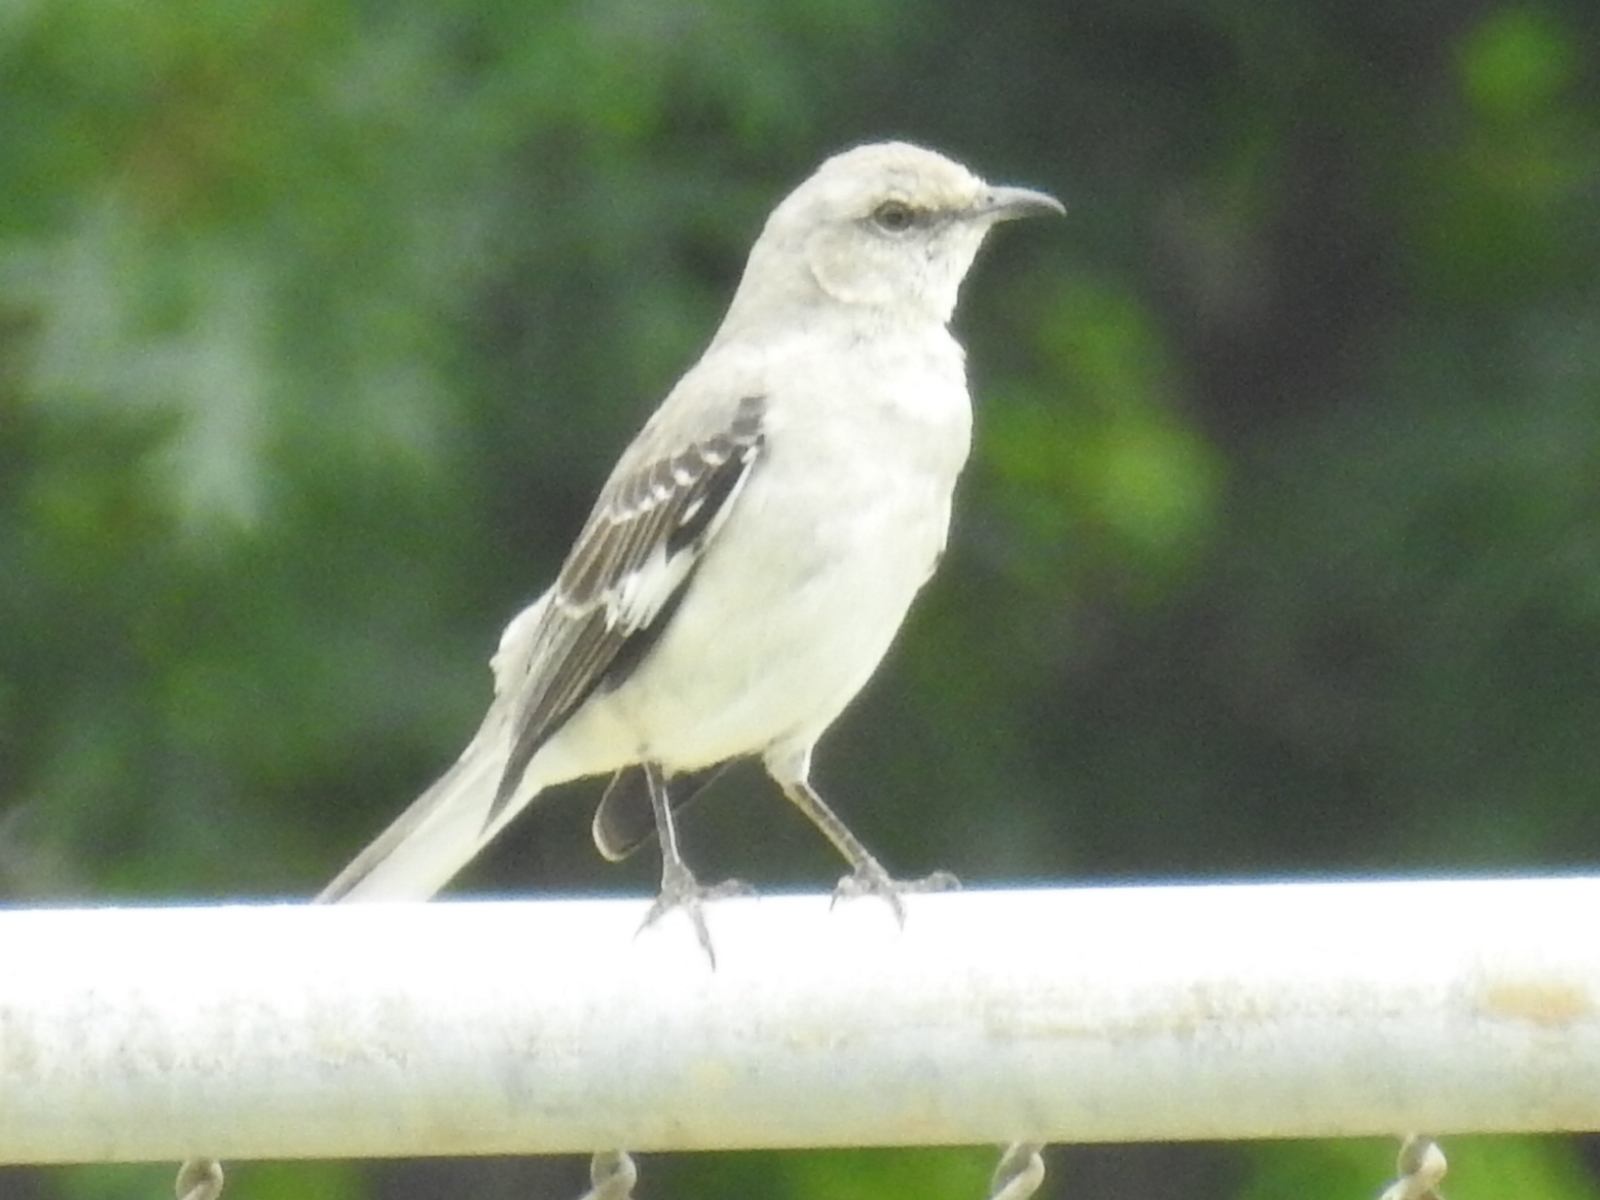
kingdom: Animalia
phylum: Chordata
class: Aves
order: Passeriformes
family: Mimidae
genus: Mimus
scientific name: Mimus polyglottos
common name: Northern mockingbird
